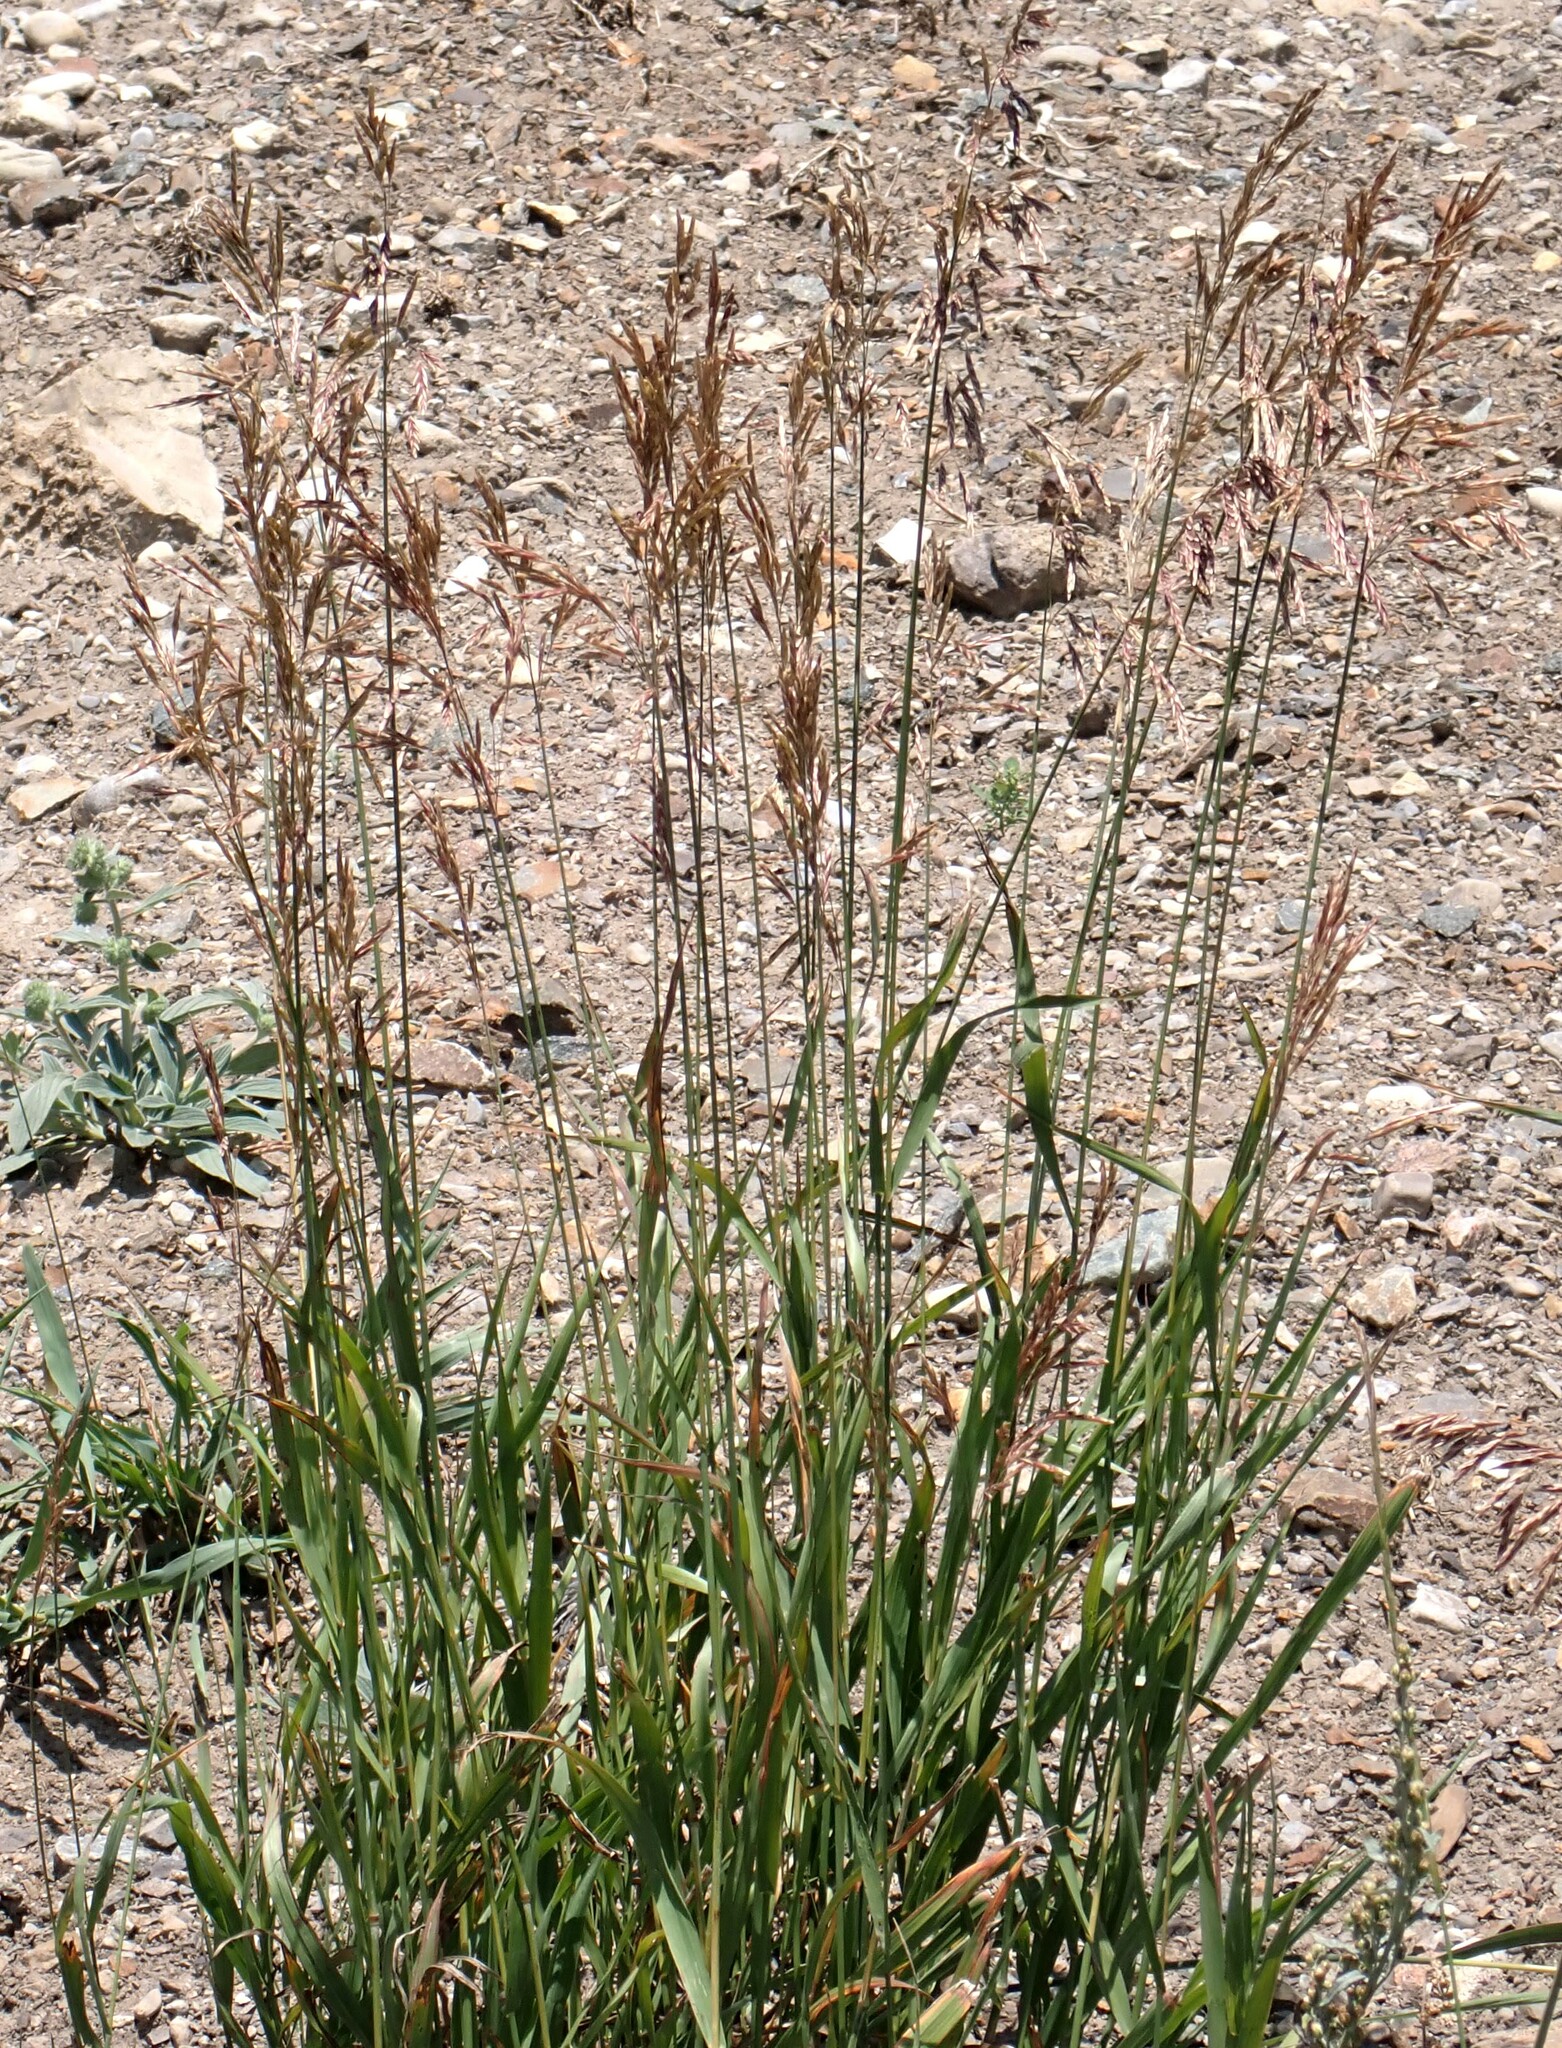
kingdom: Plantae
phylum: Tracheophyta
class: Liliopsida
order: Poales
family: Poaceae
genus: Bromus
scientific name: Bromus inermis
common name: Smooth brome
